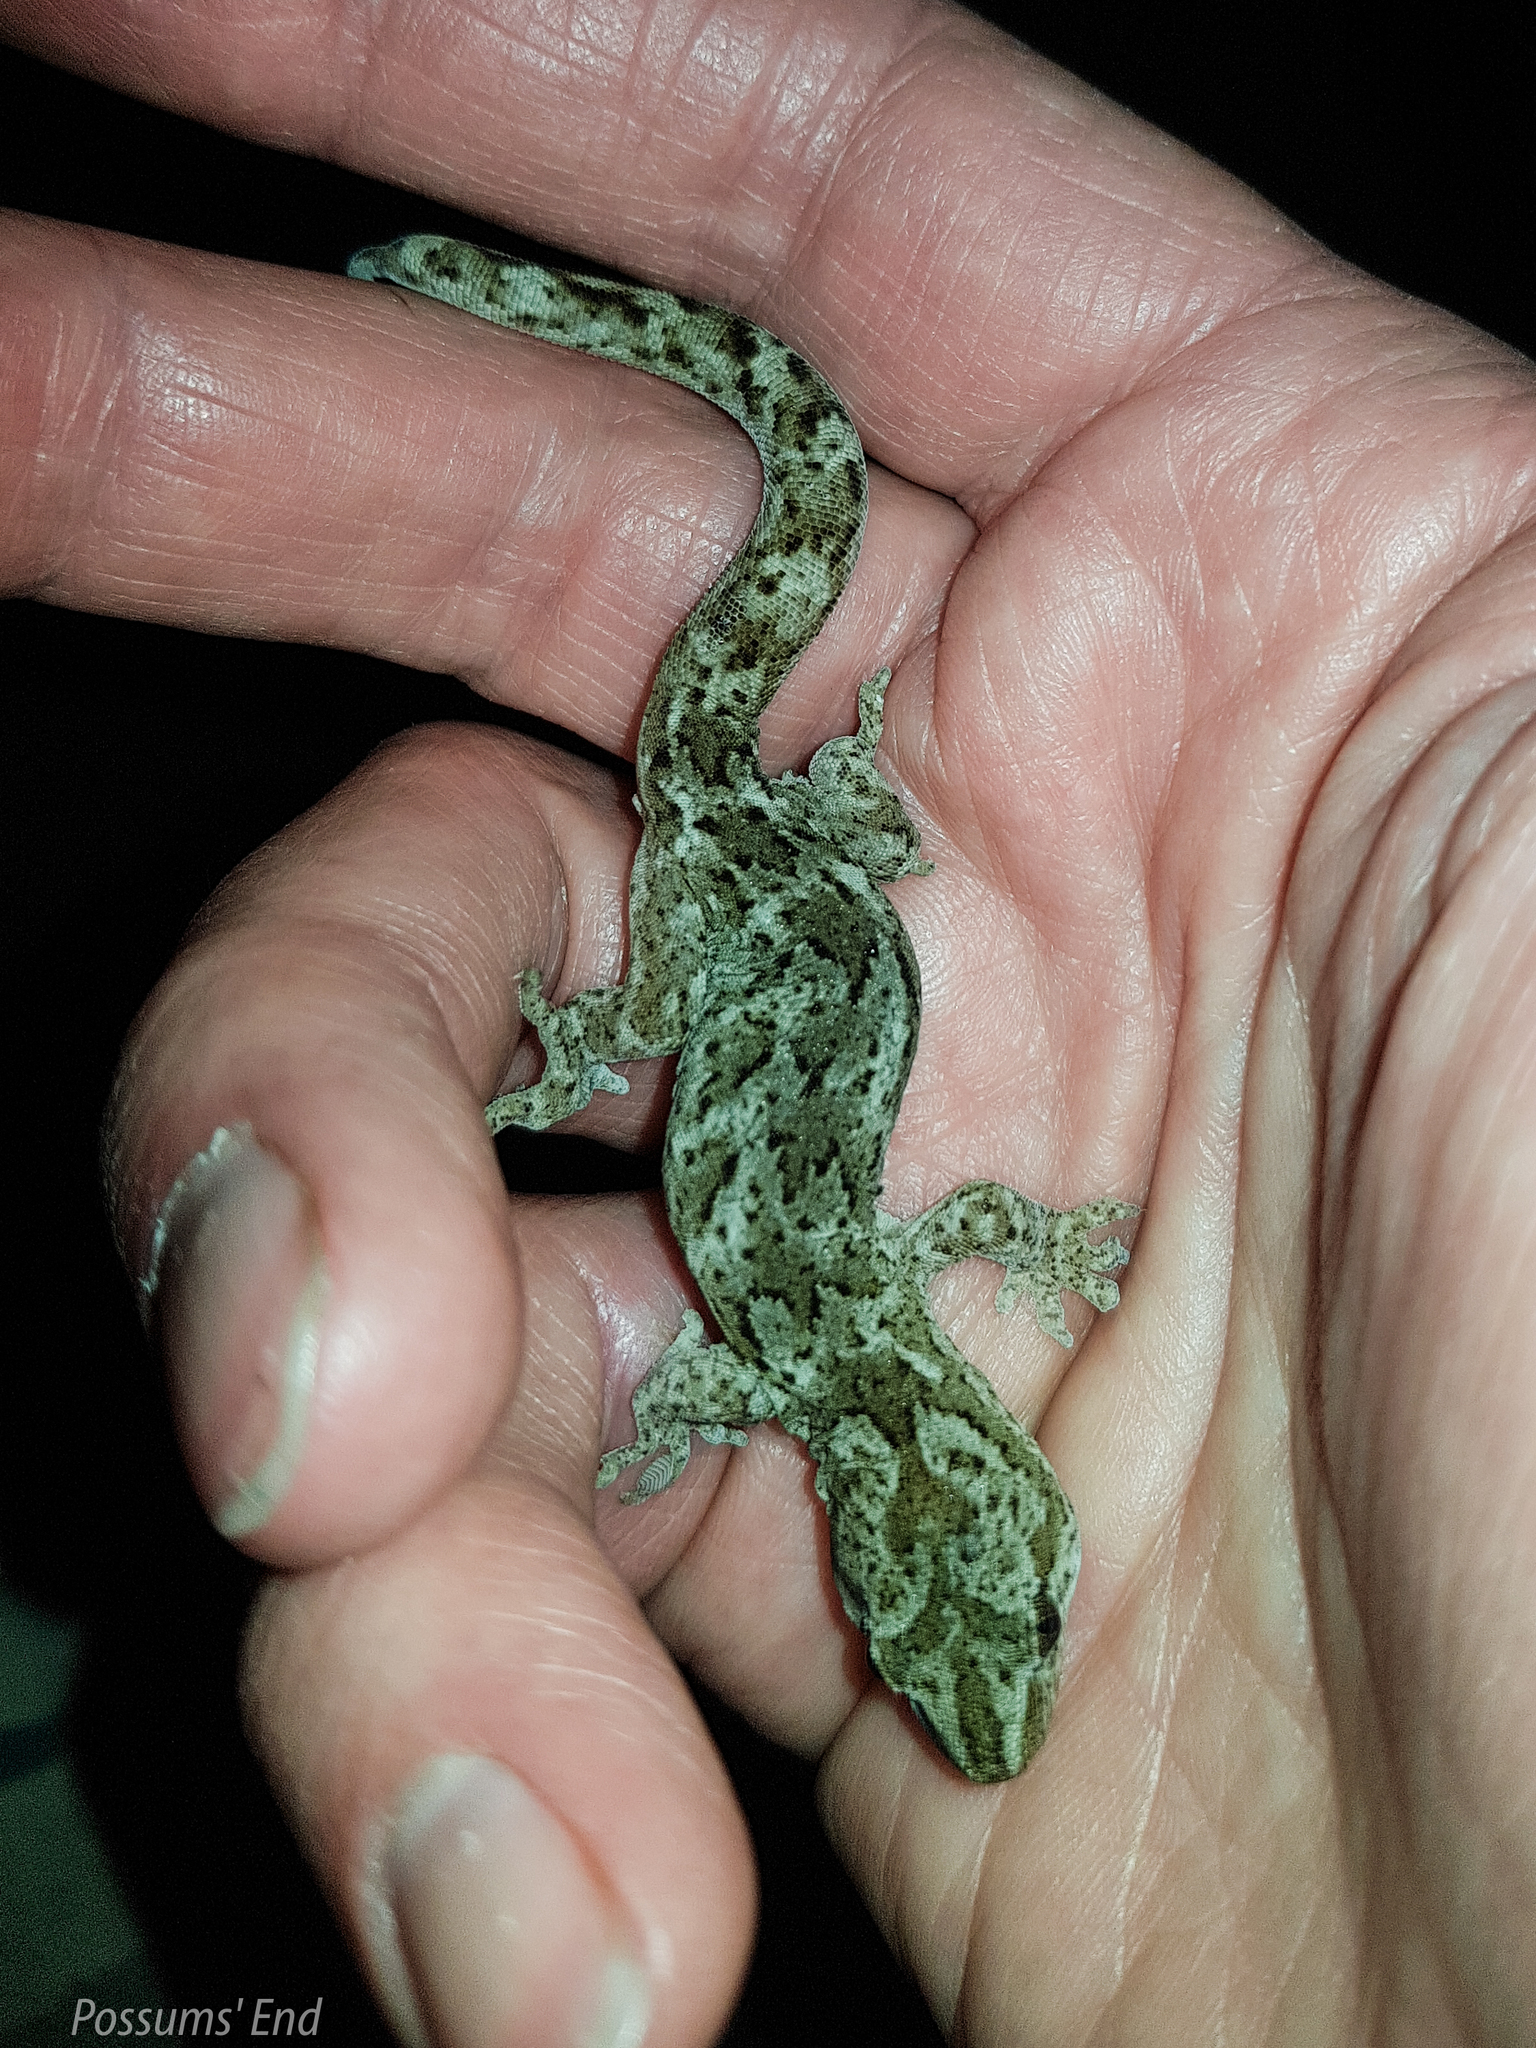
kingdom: Animalia
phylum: Chordata
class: Squamata
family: Diplodactylidae
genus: Woodworthia
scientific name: Woodworthia
